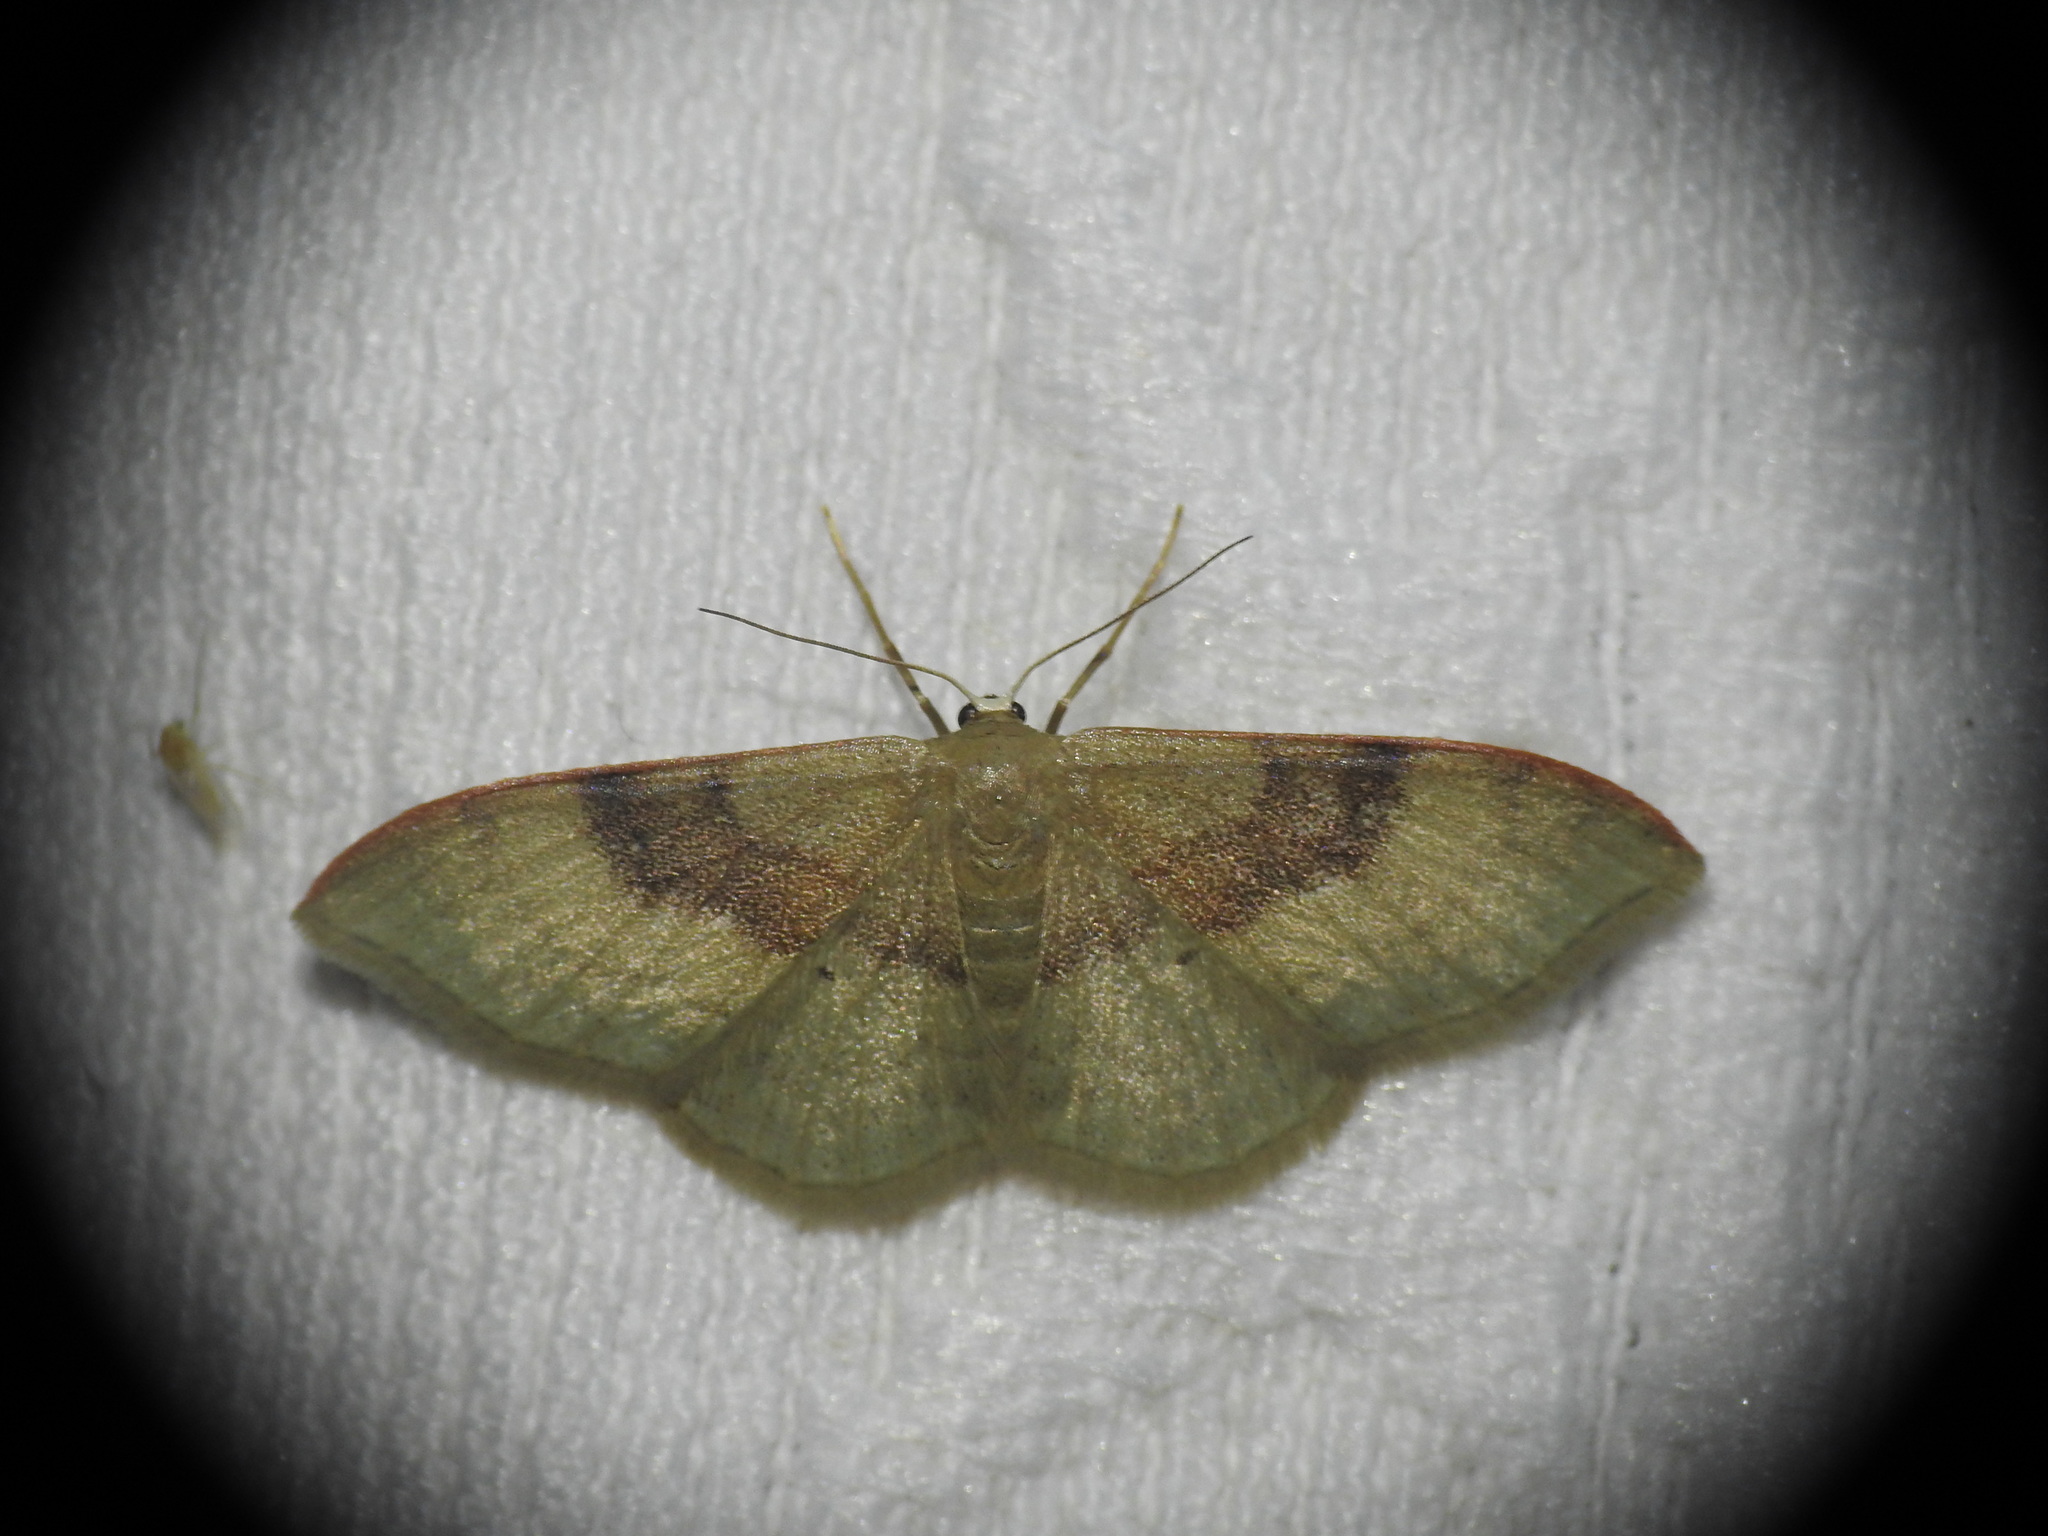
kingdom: Animalia
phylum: Arthropoda
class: Insecta
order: Lepidoptera
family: Geometridae
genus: Idaea
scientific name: Idaea degeneraria
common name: Portland ribbon wave
